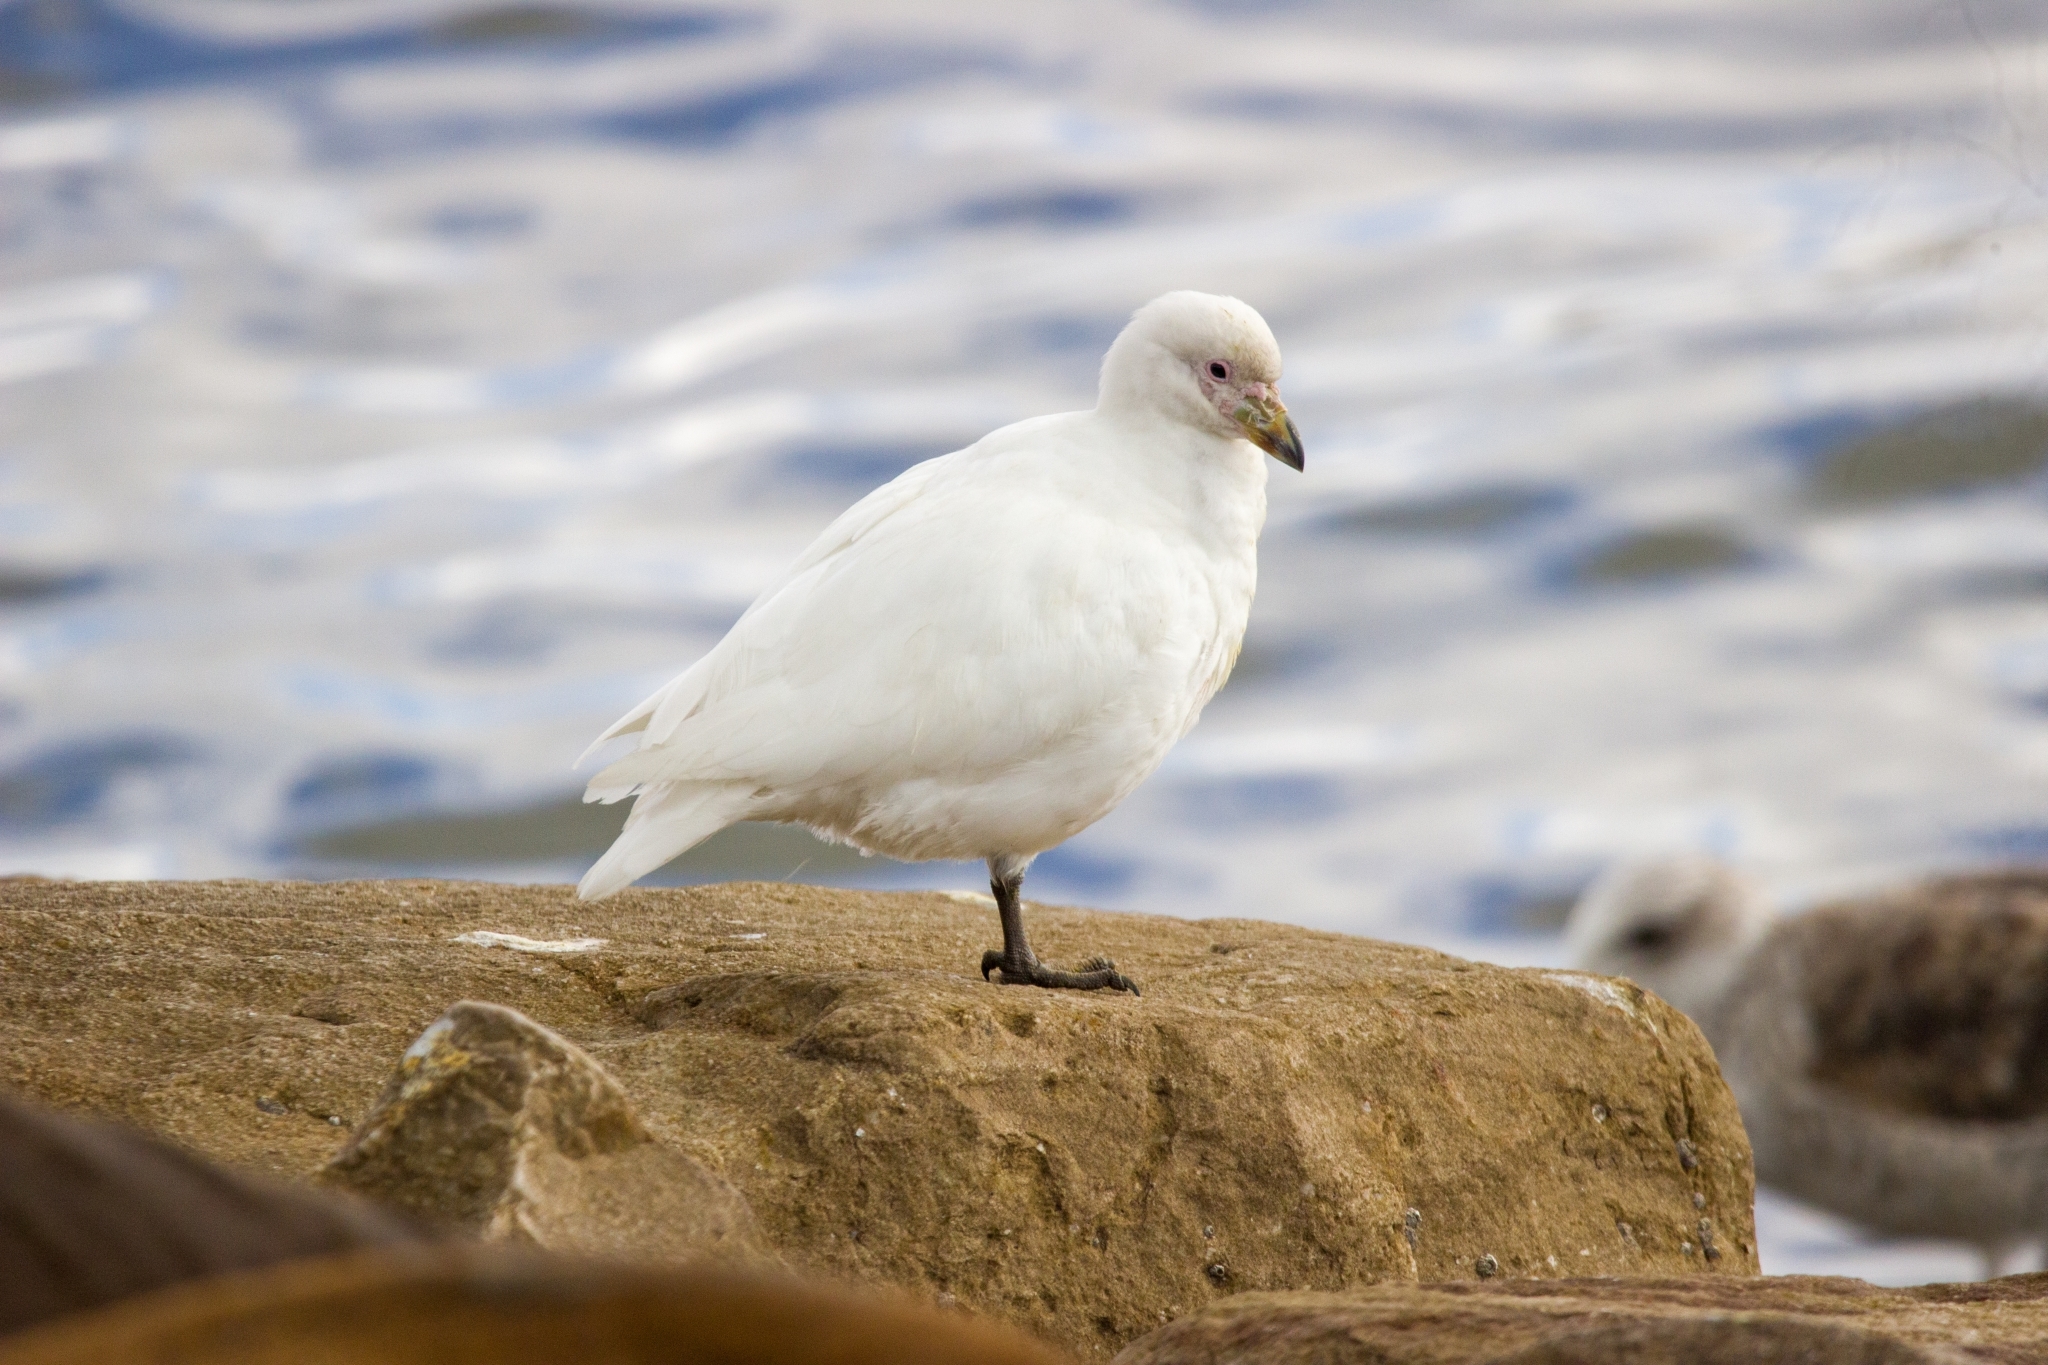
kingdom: Animalia
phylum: Chordata
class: Aves
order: Charadriiformes
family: Chionidae
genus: Chionis
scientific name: Chionis albus
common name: Snowy sheathbill
